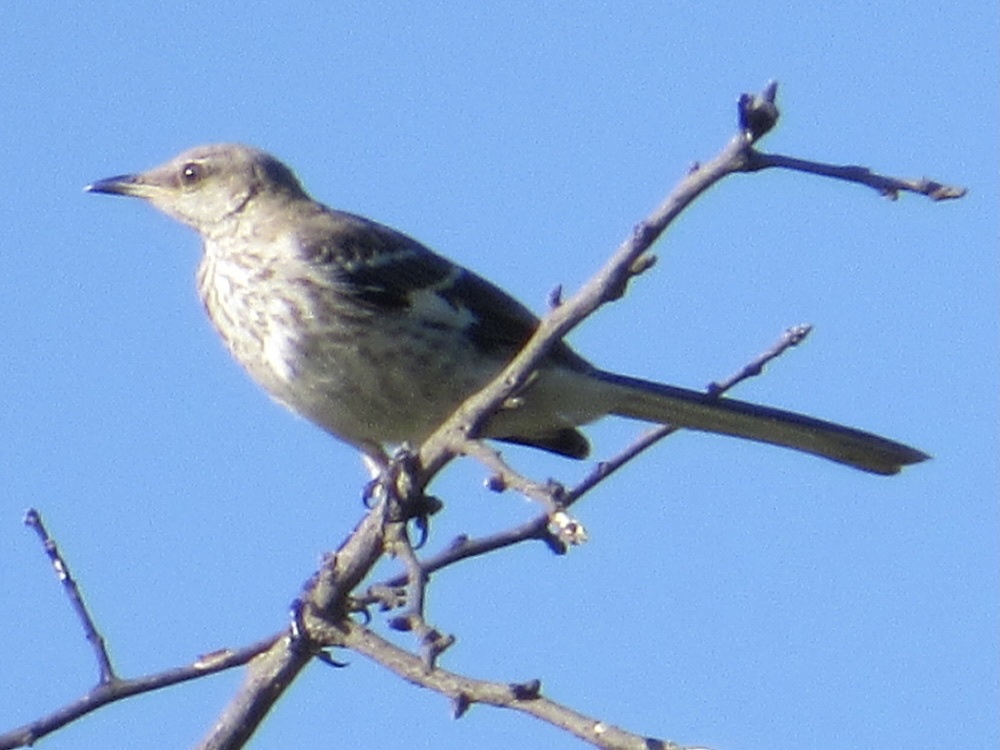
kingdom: Animalia
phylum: Chordata
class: Aves
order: Passeriformes
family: Mimidae
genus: Mimus
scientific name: Mimus polyglottos
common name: Northern mockingbird
